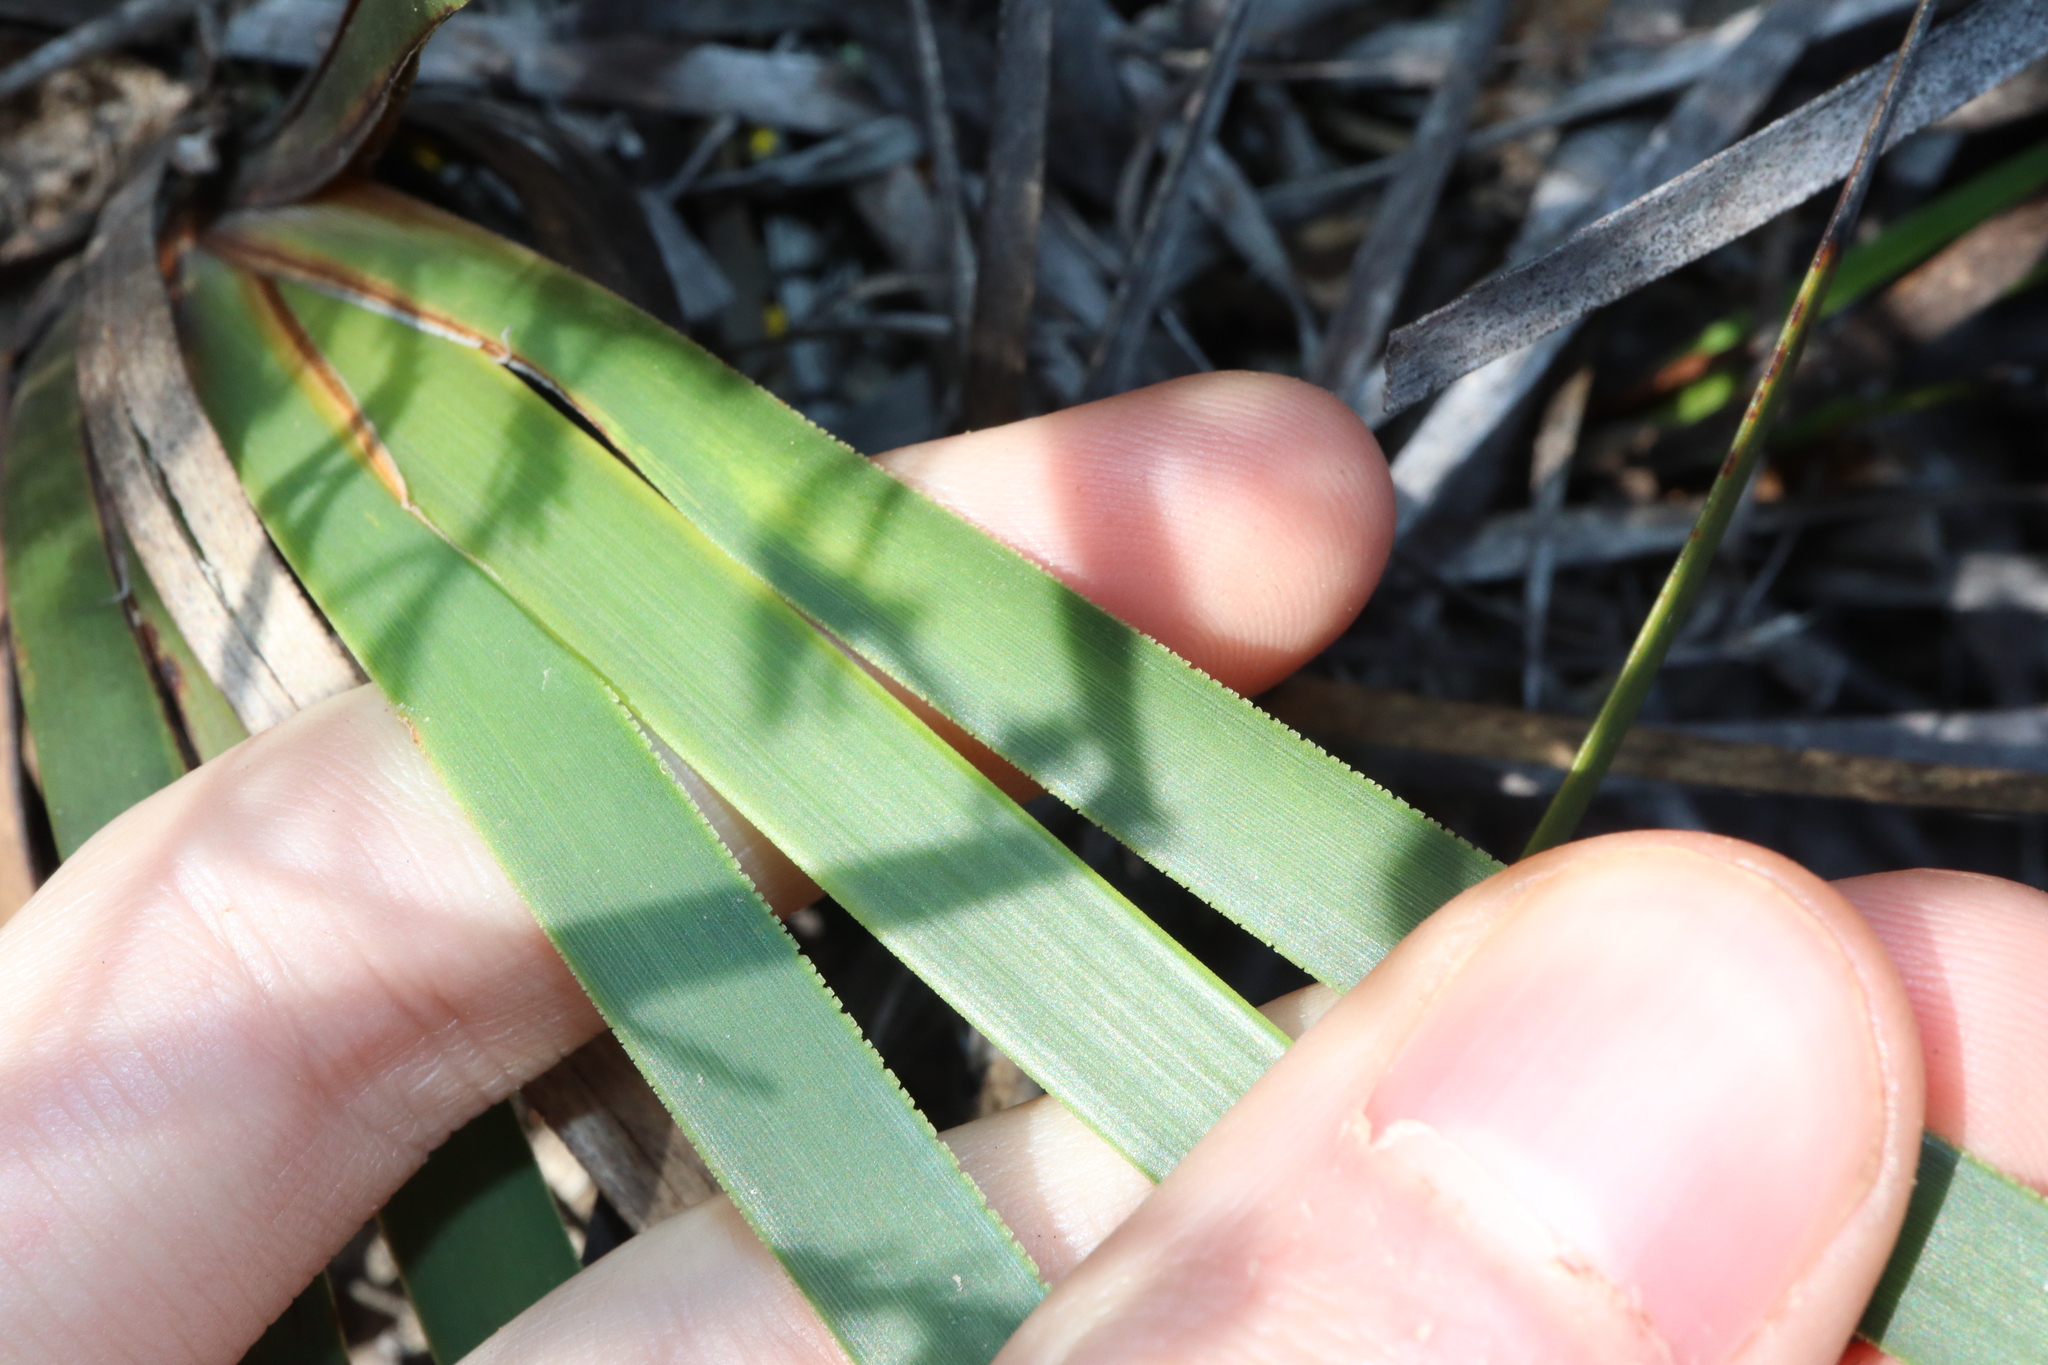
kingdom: Plantae
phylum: Tracheophyta
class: Liliopsida
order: Poales
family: Restionaceae
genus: Anarthria
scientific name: Anarthria scabra
